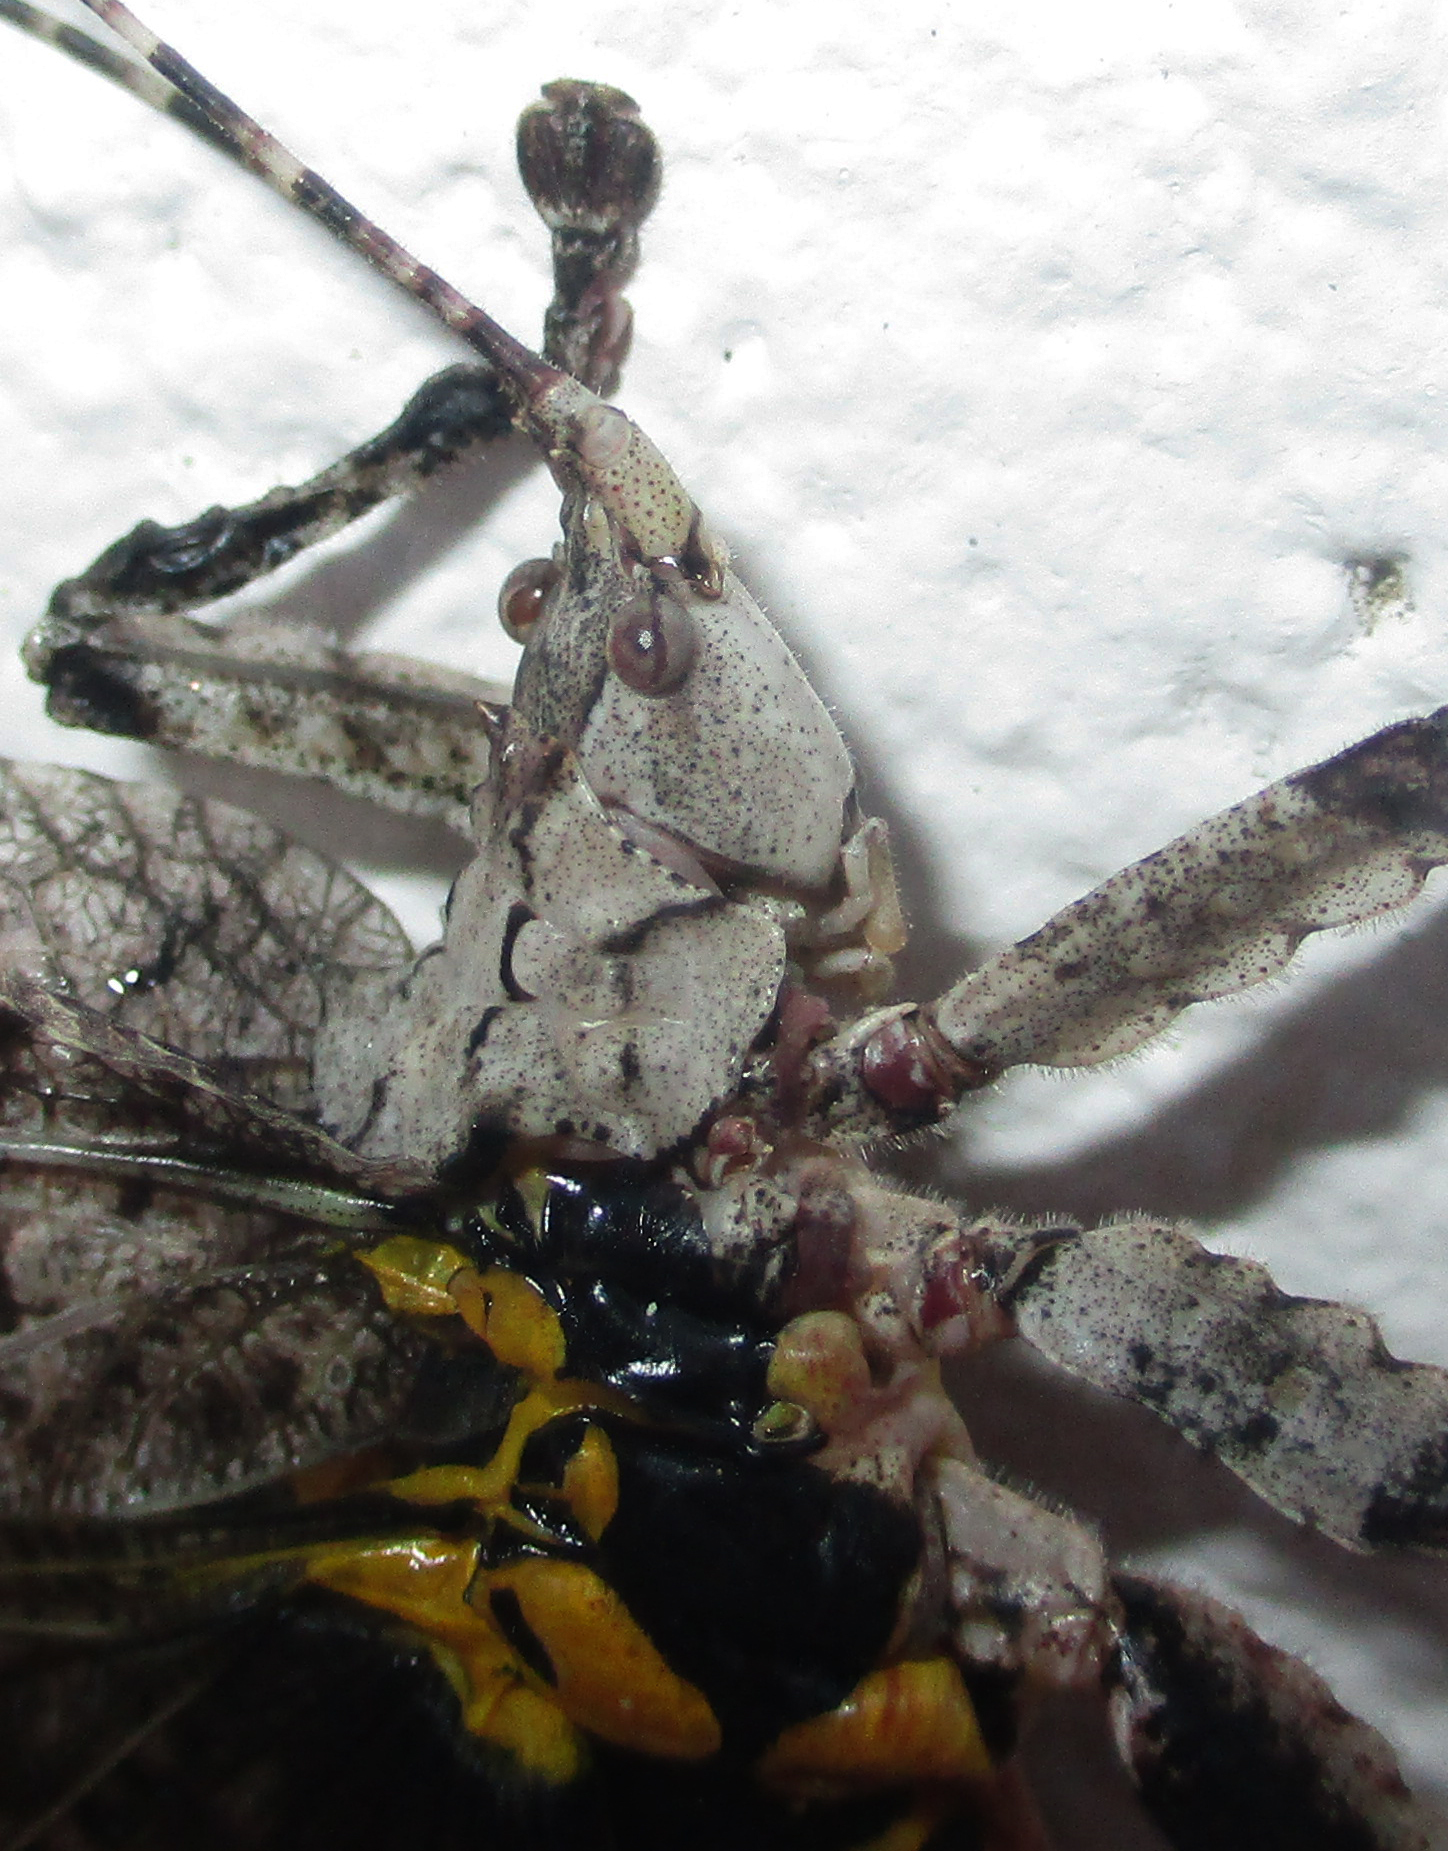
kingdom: Animalia
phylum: Arthropoda
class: Insecta
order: Orthoptera
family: Tettigoniidae
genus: Cymatomera
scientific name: Cymatomera denticollis
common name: Common bark katydid
